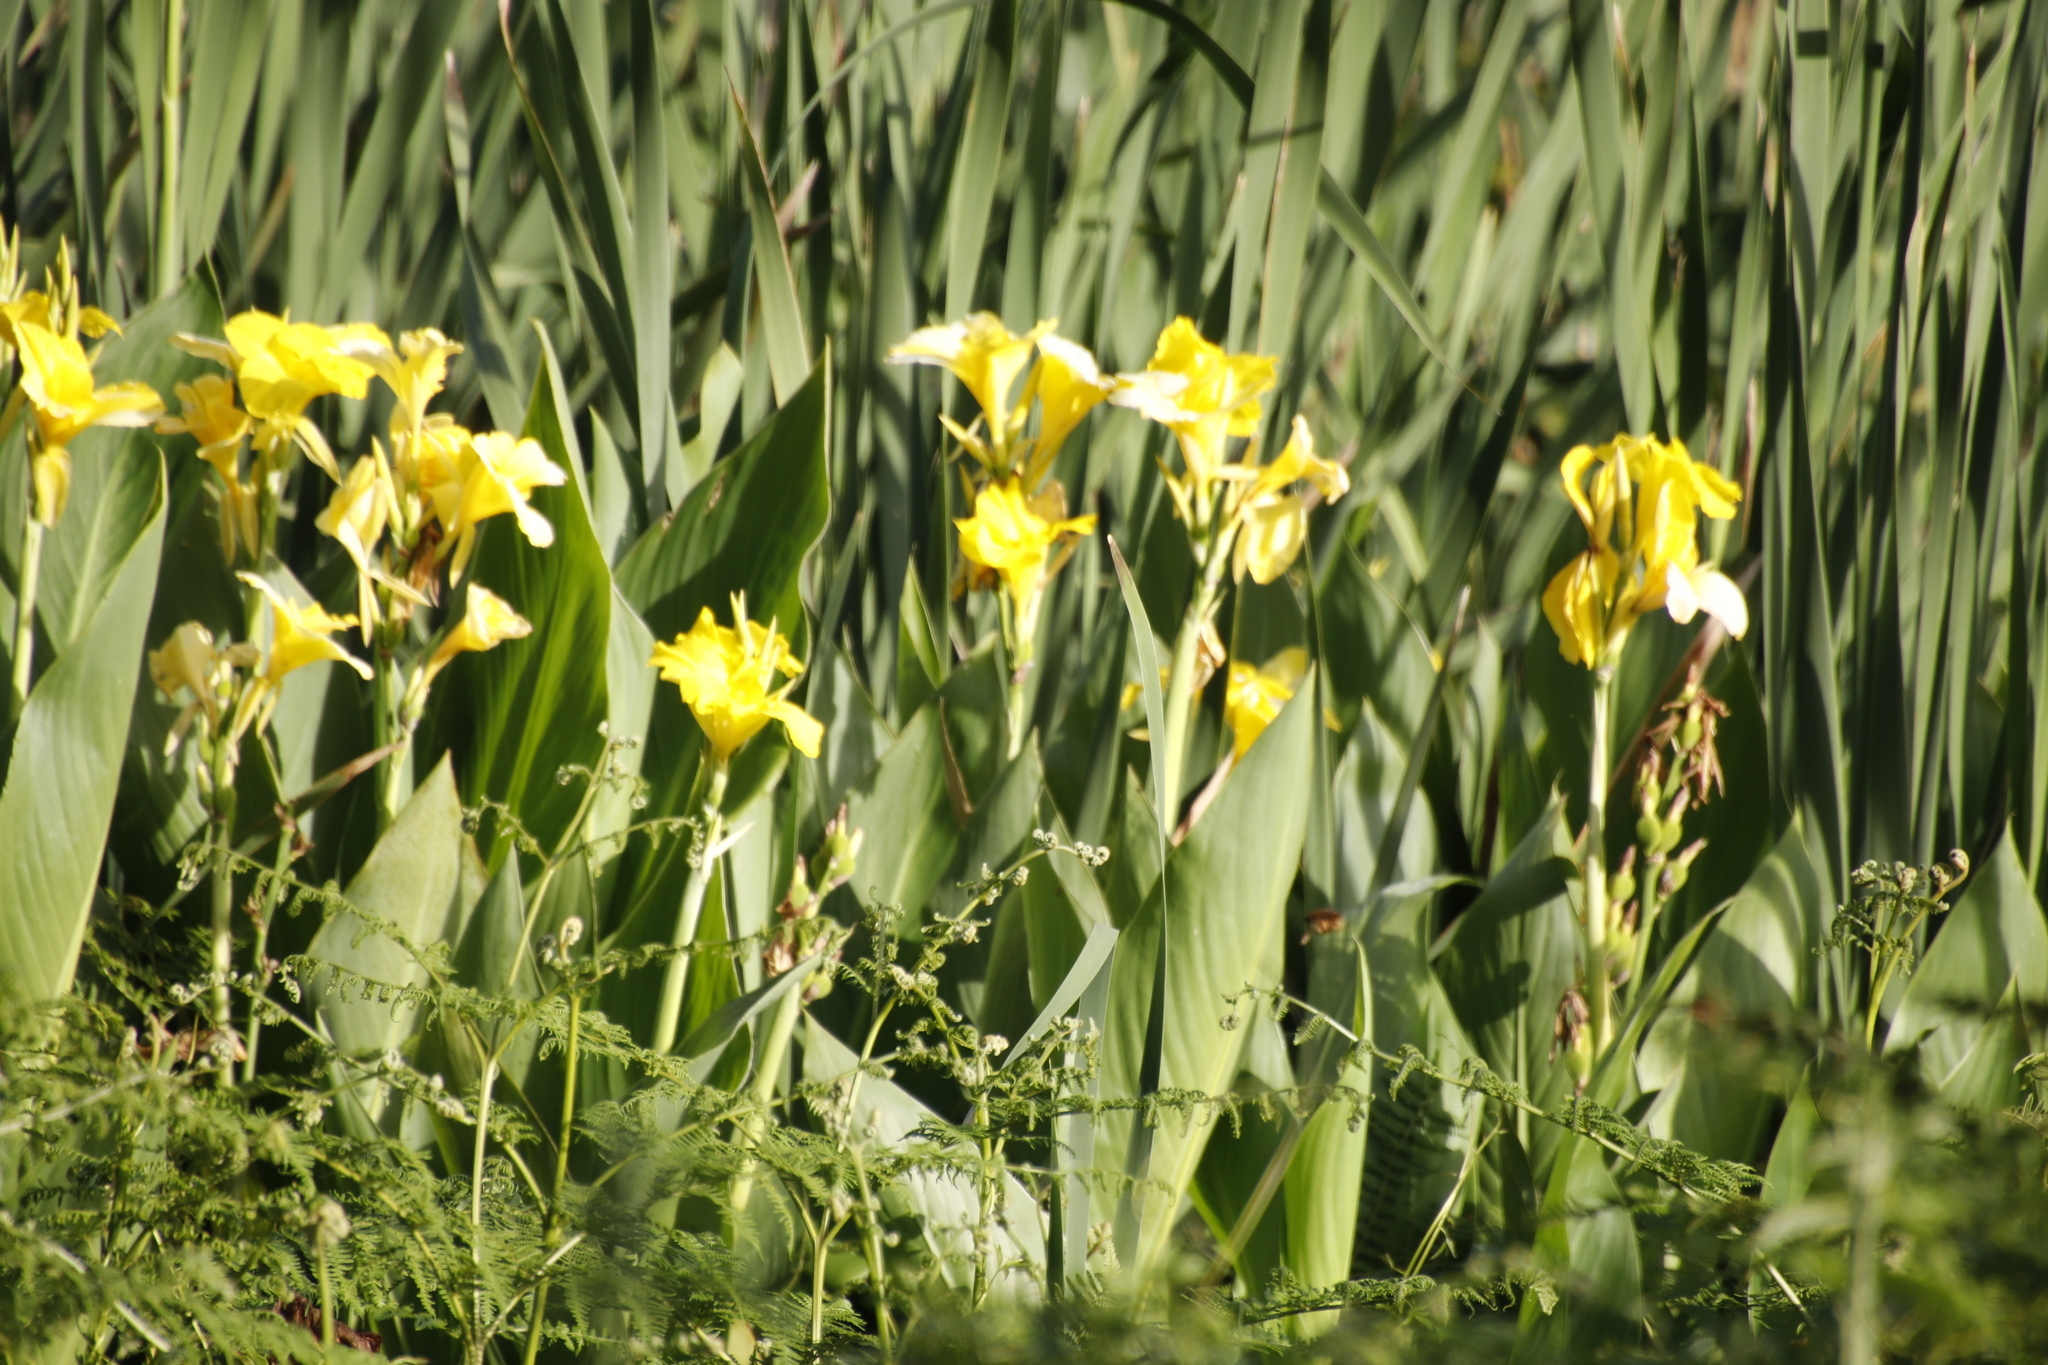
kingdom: Plantae
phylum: Tracheophyta
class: Liliopsida
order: Zingiberales
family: Cannaceae
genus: Canna
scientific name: Canna hybrida
